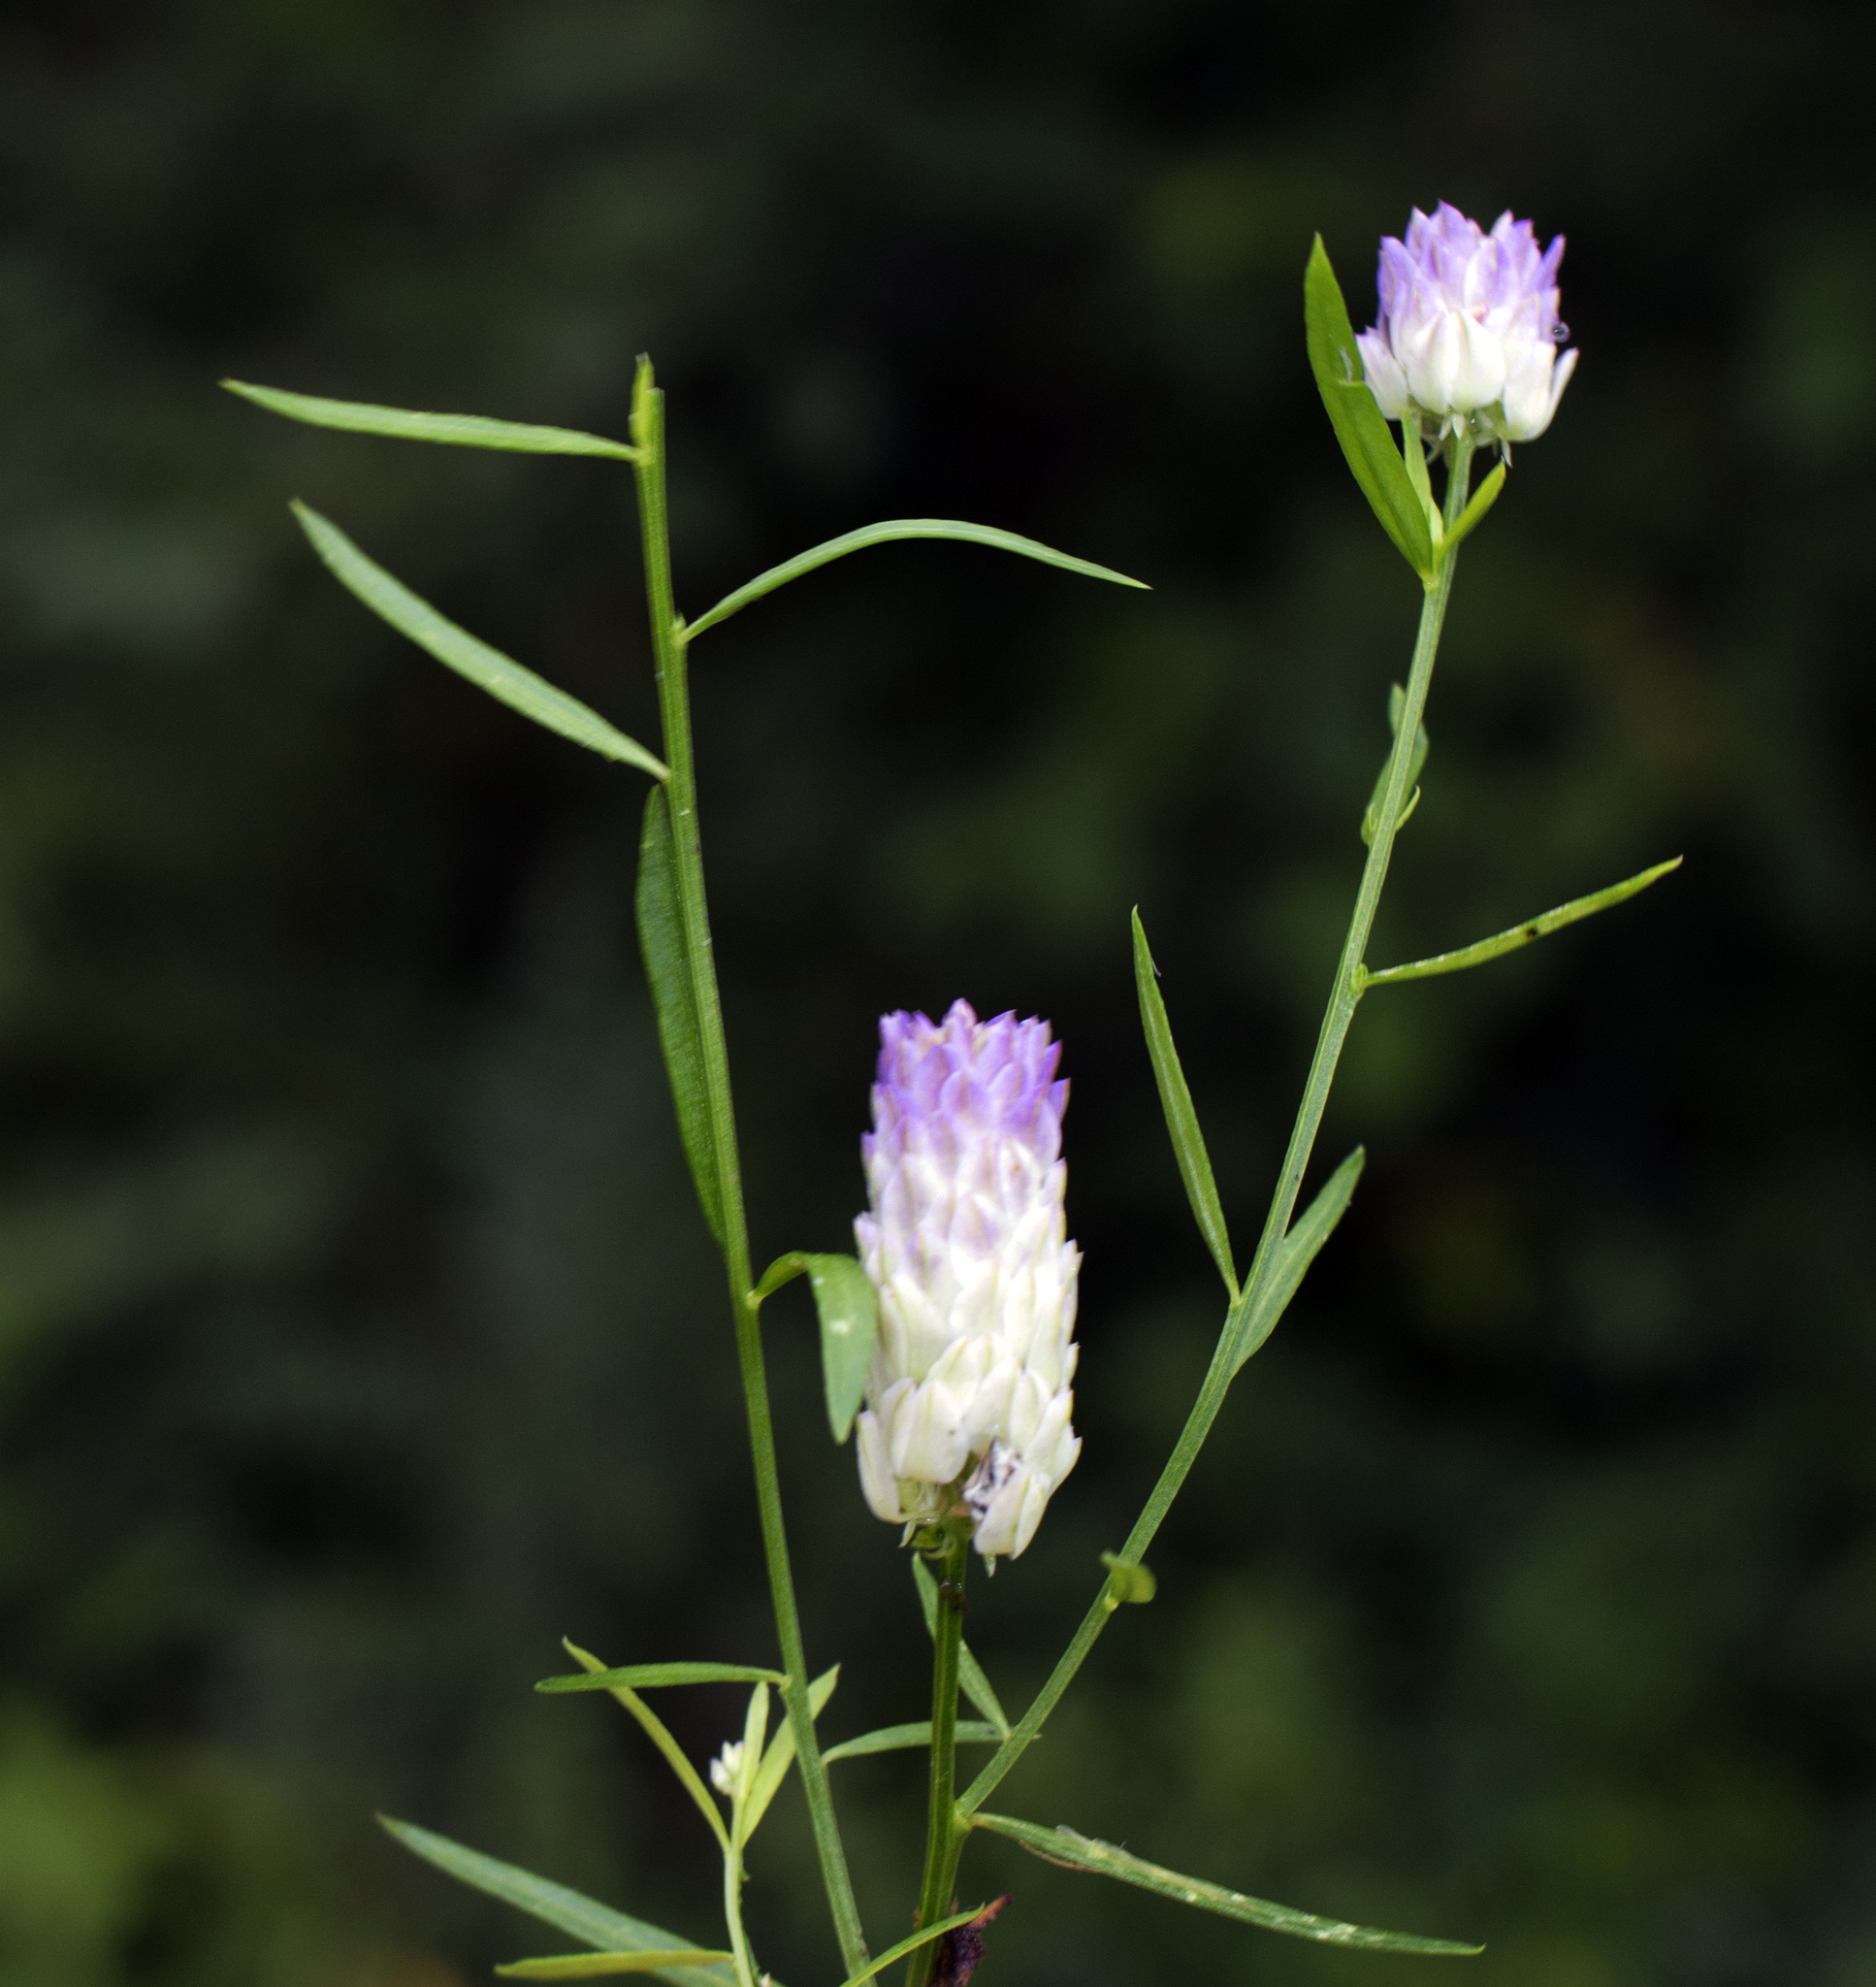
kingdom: Plantae
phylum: Tracheophyta
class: Magnoliopsida
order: Fabales
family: Polygalaceae
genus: Polygala
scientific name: Polygala sanguinea
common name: Blood milkwort
